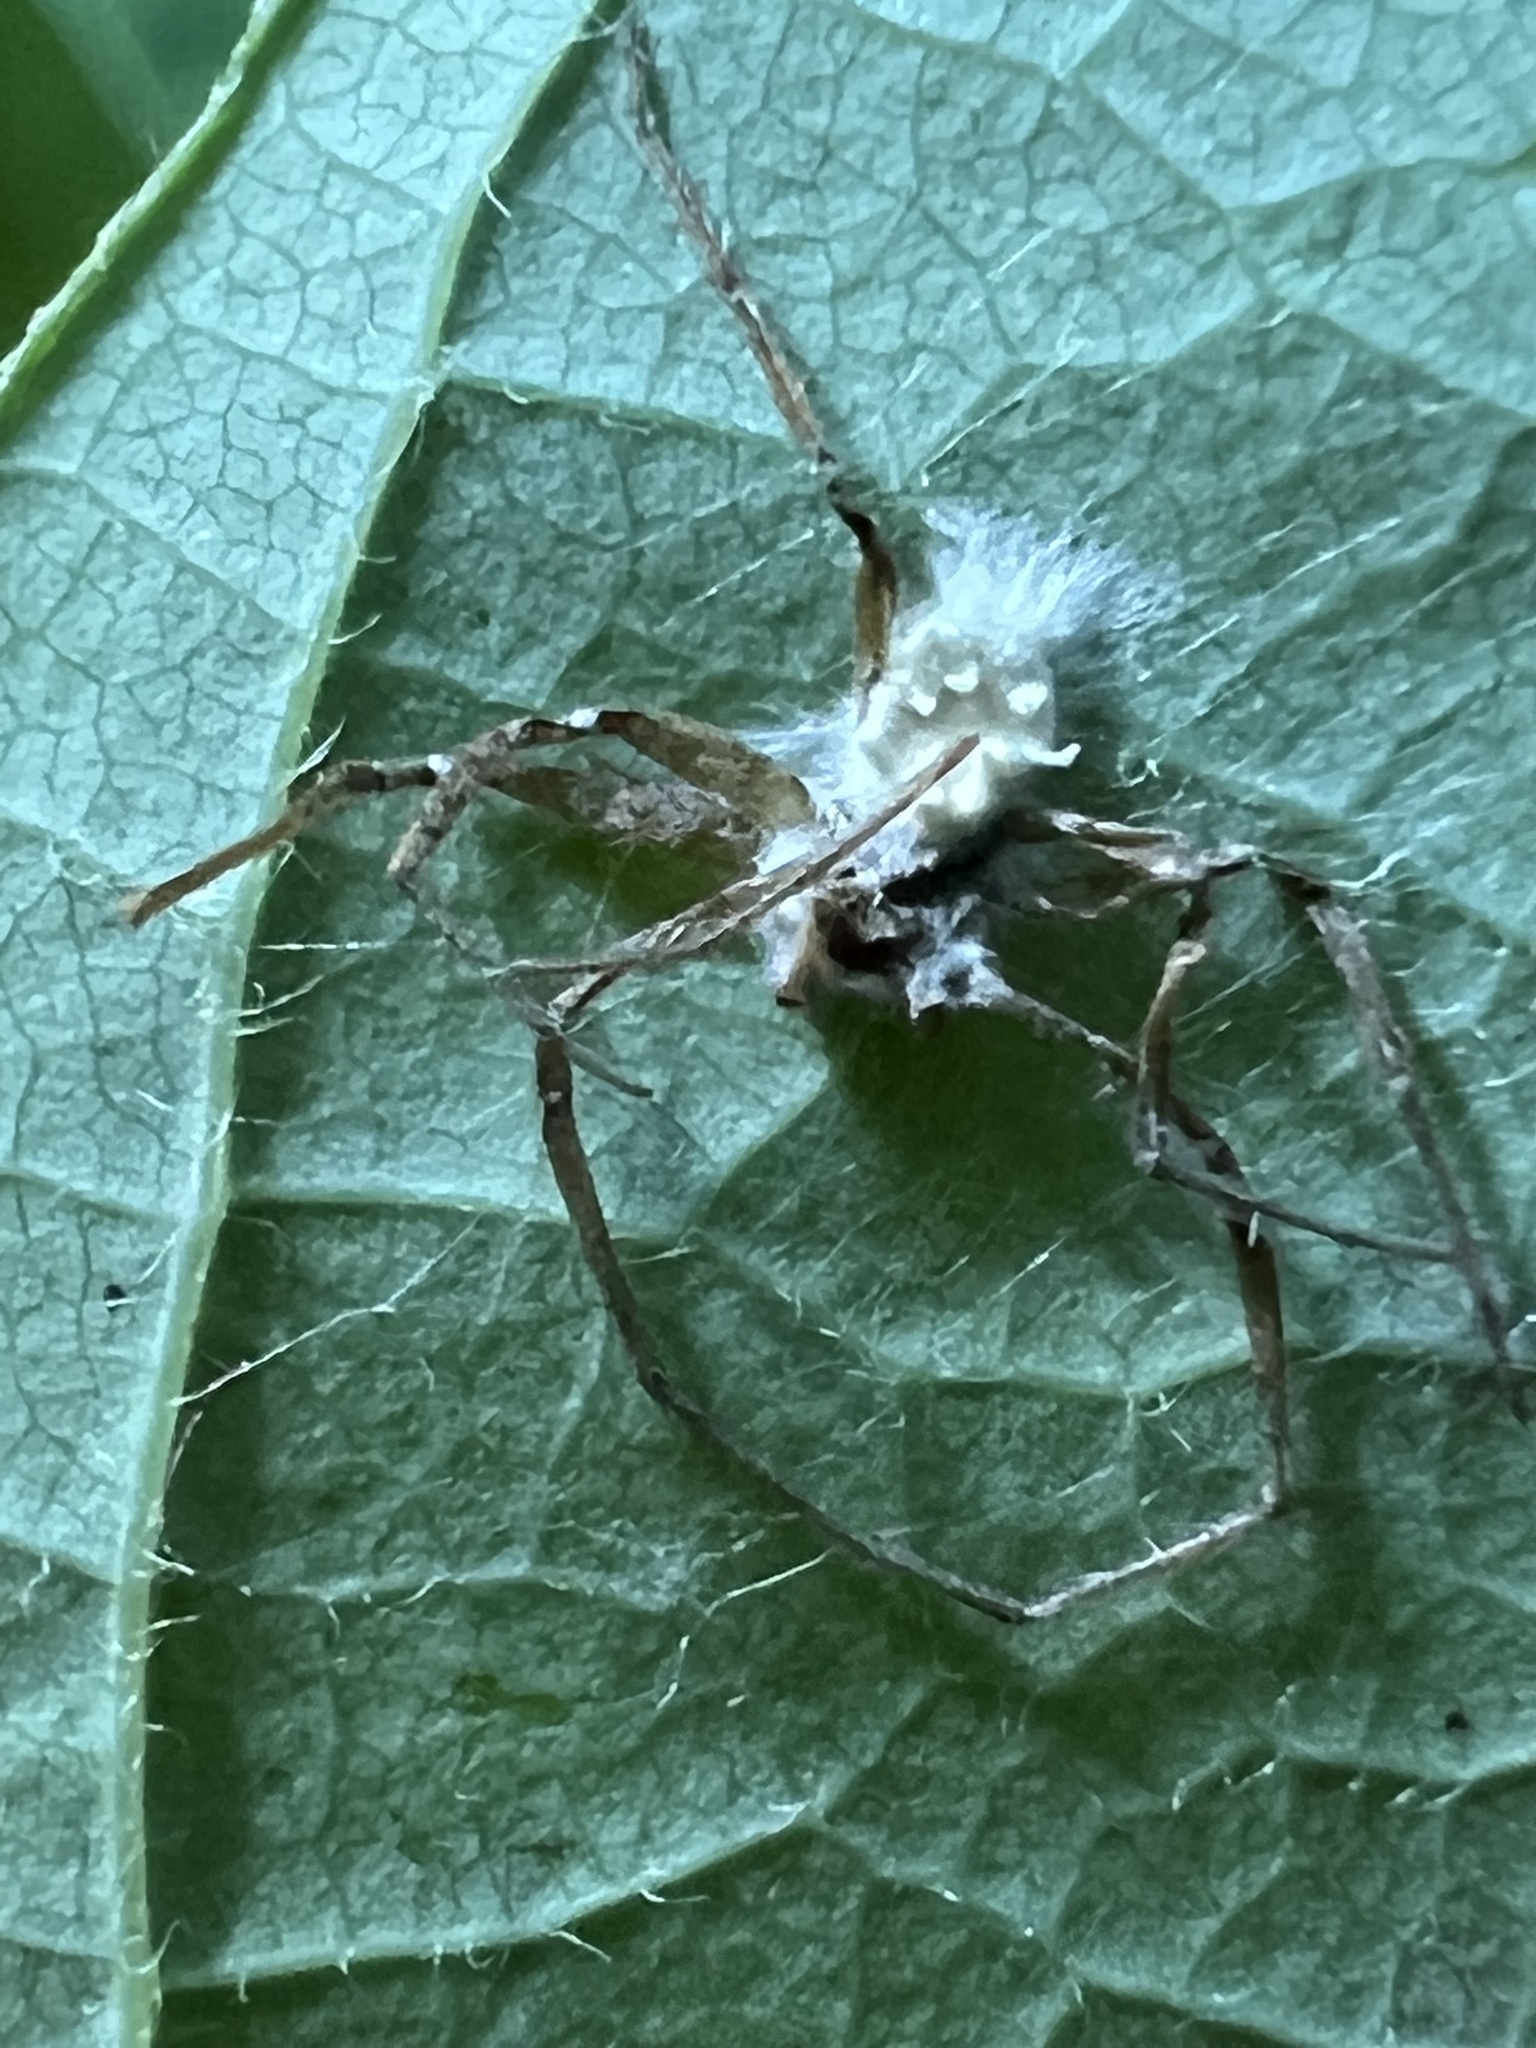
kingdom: Fungi
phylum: Ascomycota
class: Sordariomycetes
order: Hypocreales
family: Cordycipitaceae
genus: Gibellula
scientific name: Gibellula arachnophila
